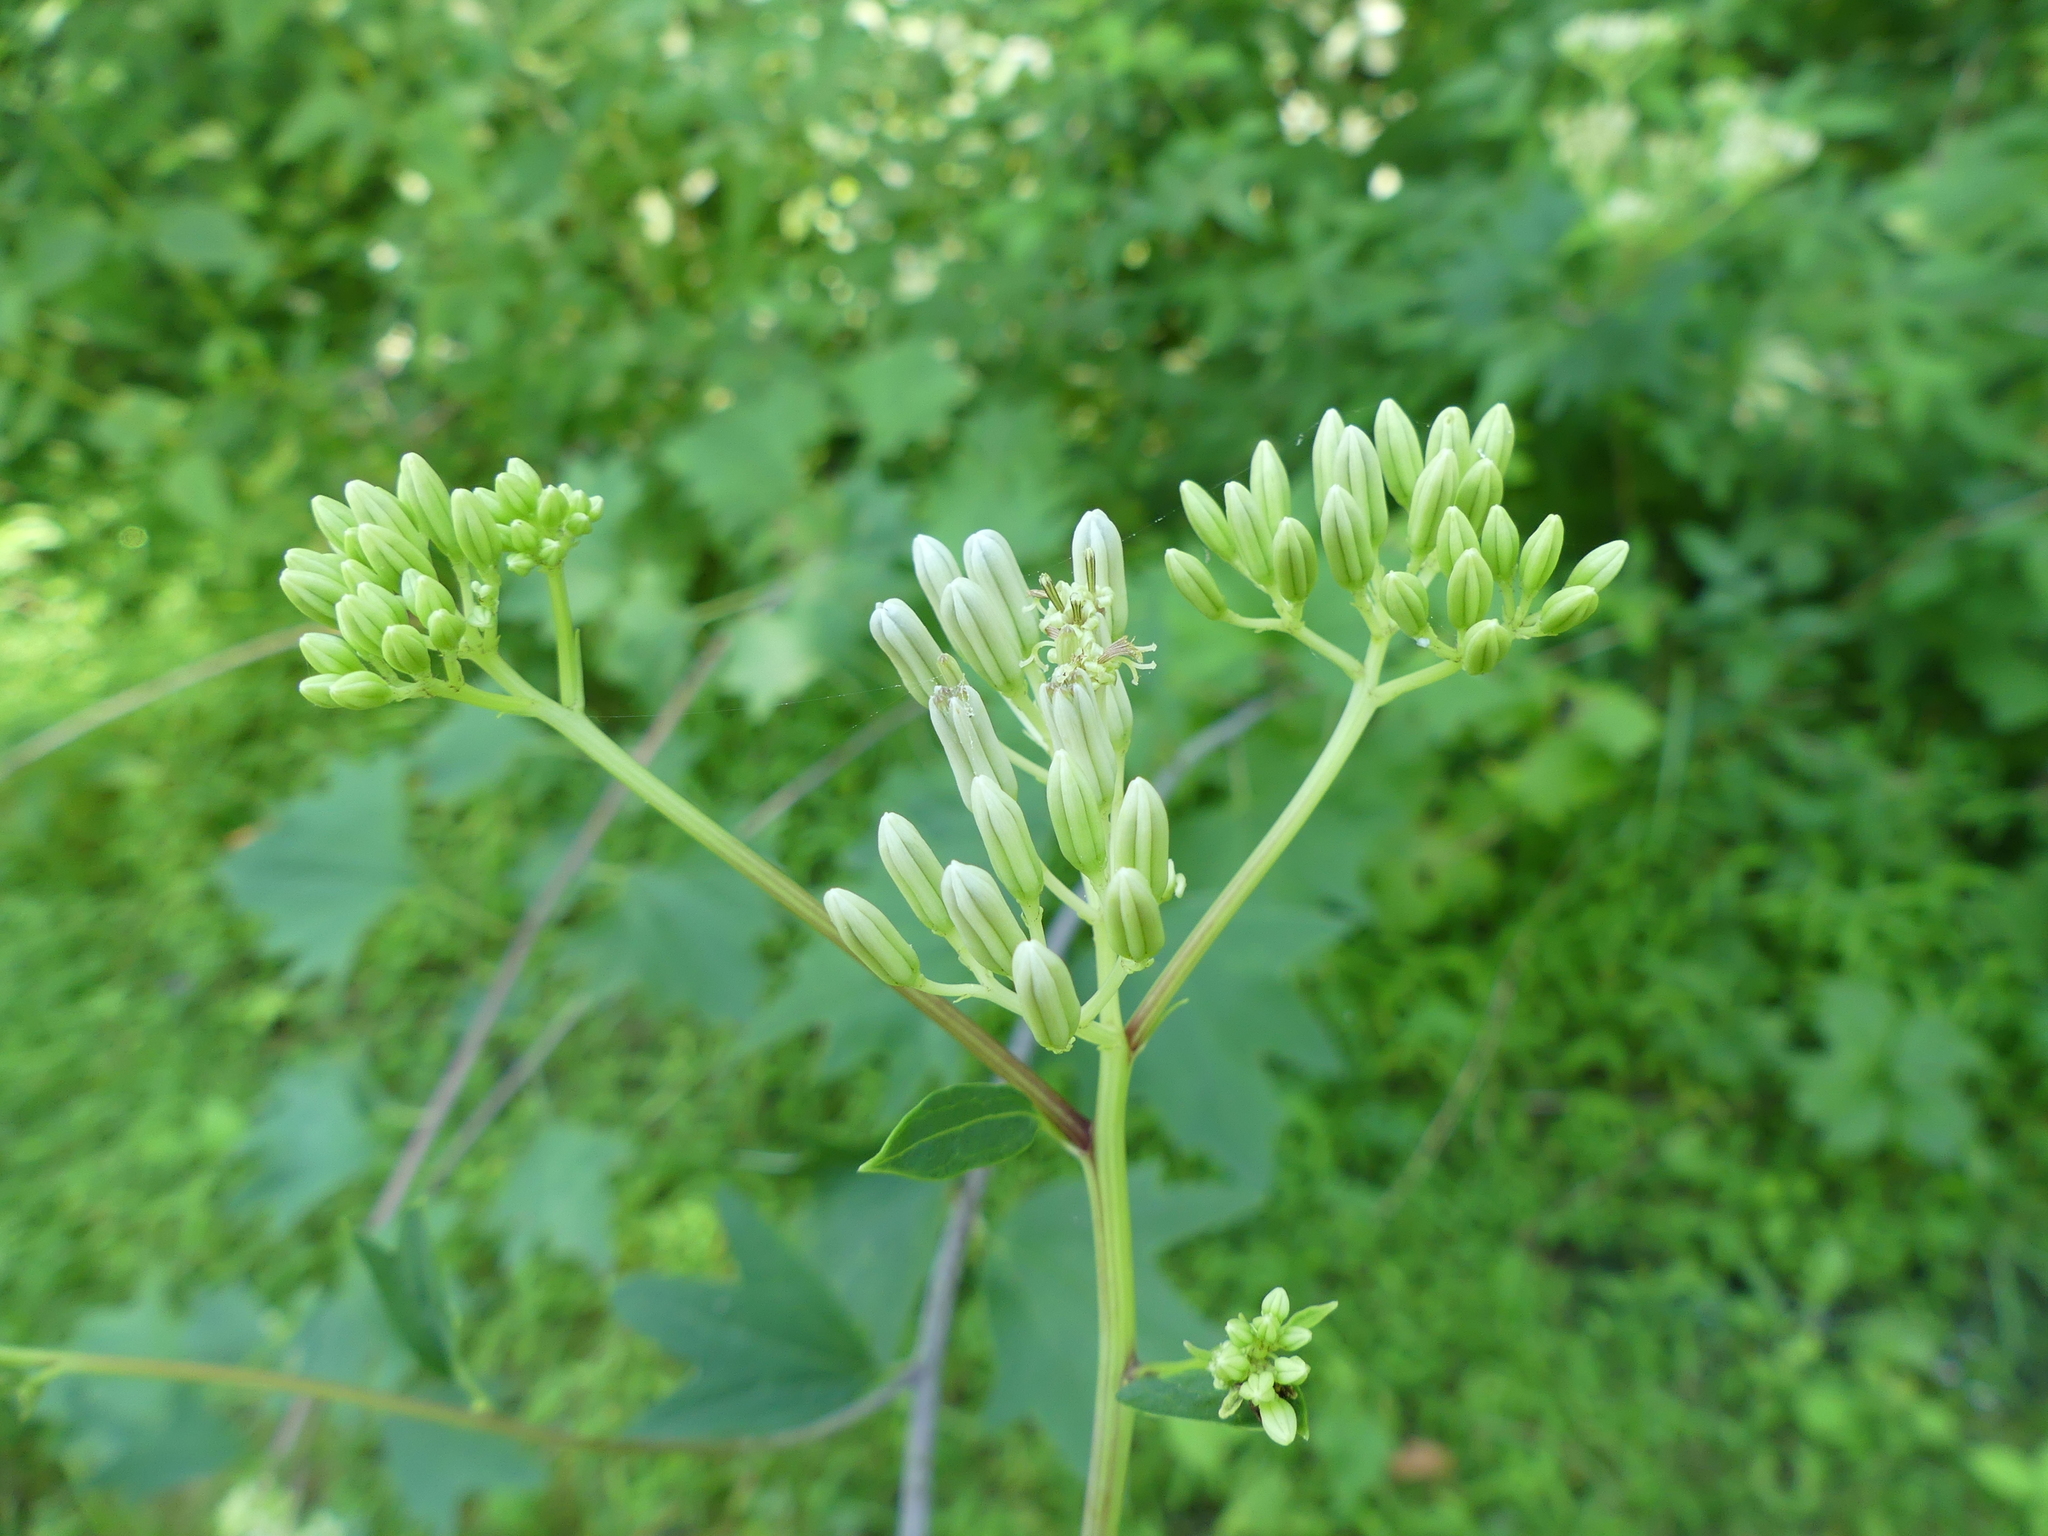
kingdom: Plantae
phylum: Tracheophyta
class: Magnoliopsida
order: Asterales
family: Asteraceae
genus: Arnoglossum
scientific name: Arnoglossum atriplicifolium
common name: Pale indian-plantain
